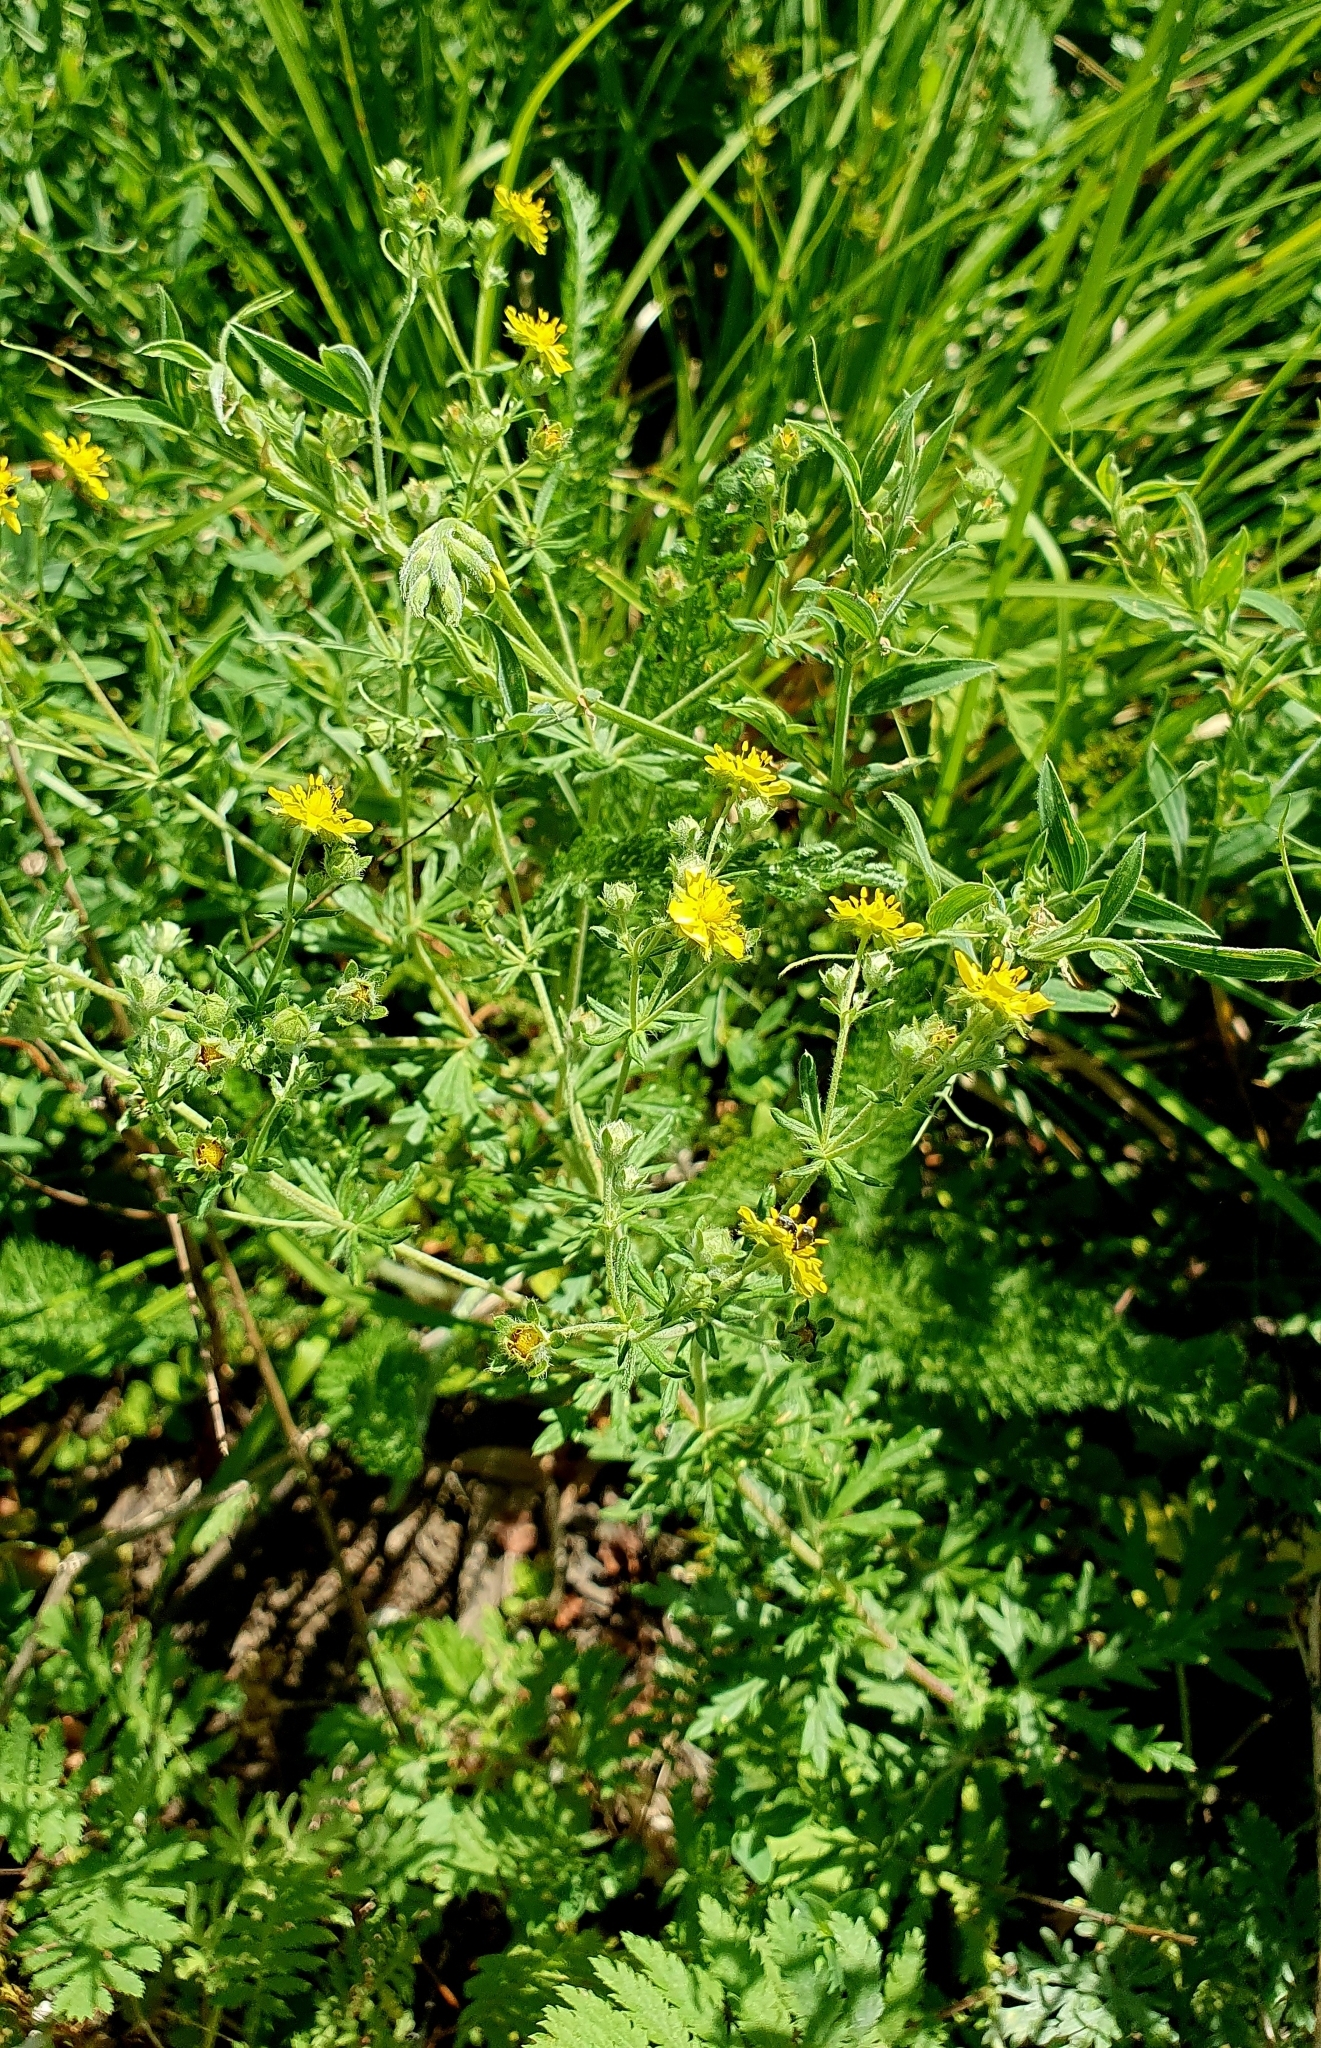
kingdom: Plantae
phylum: Tracheophyta
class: Magnoliopsida
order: Rosales
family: Rosaceae
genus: Potentilla
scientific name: Potentilla argentea
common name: Hoary cinquefoil
